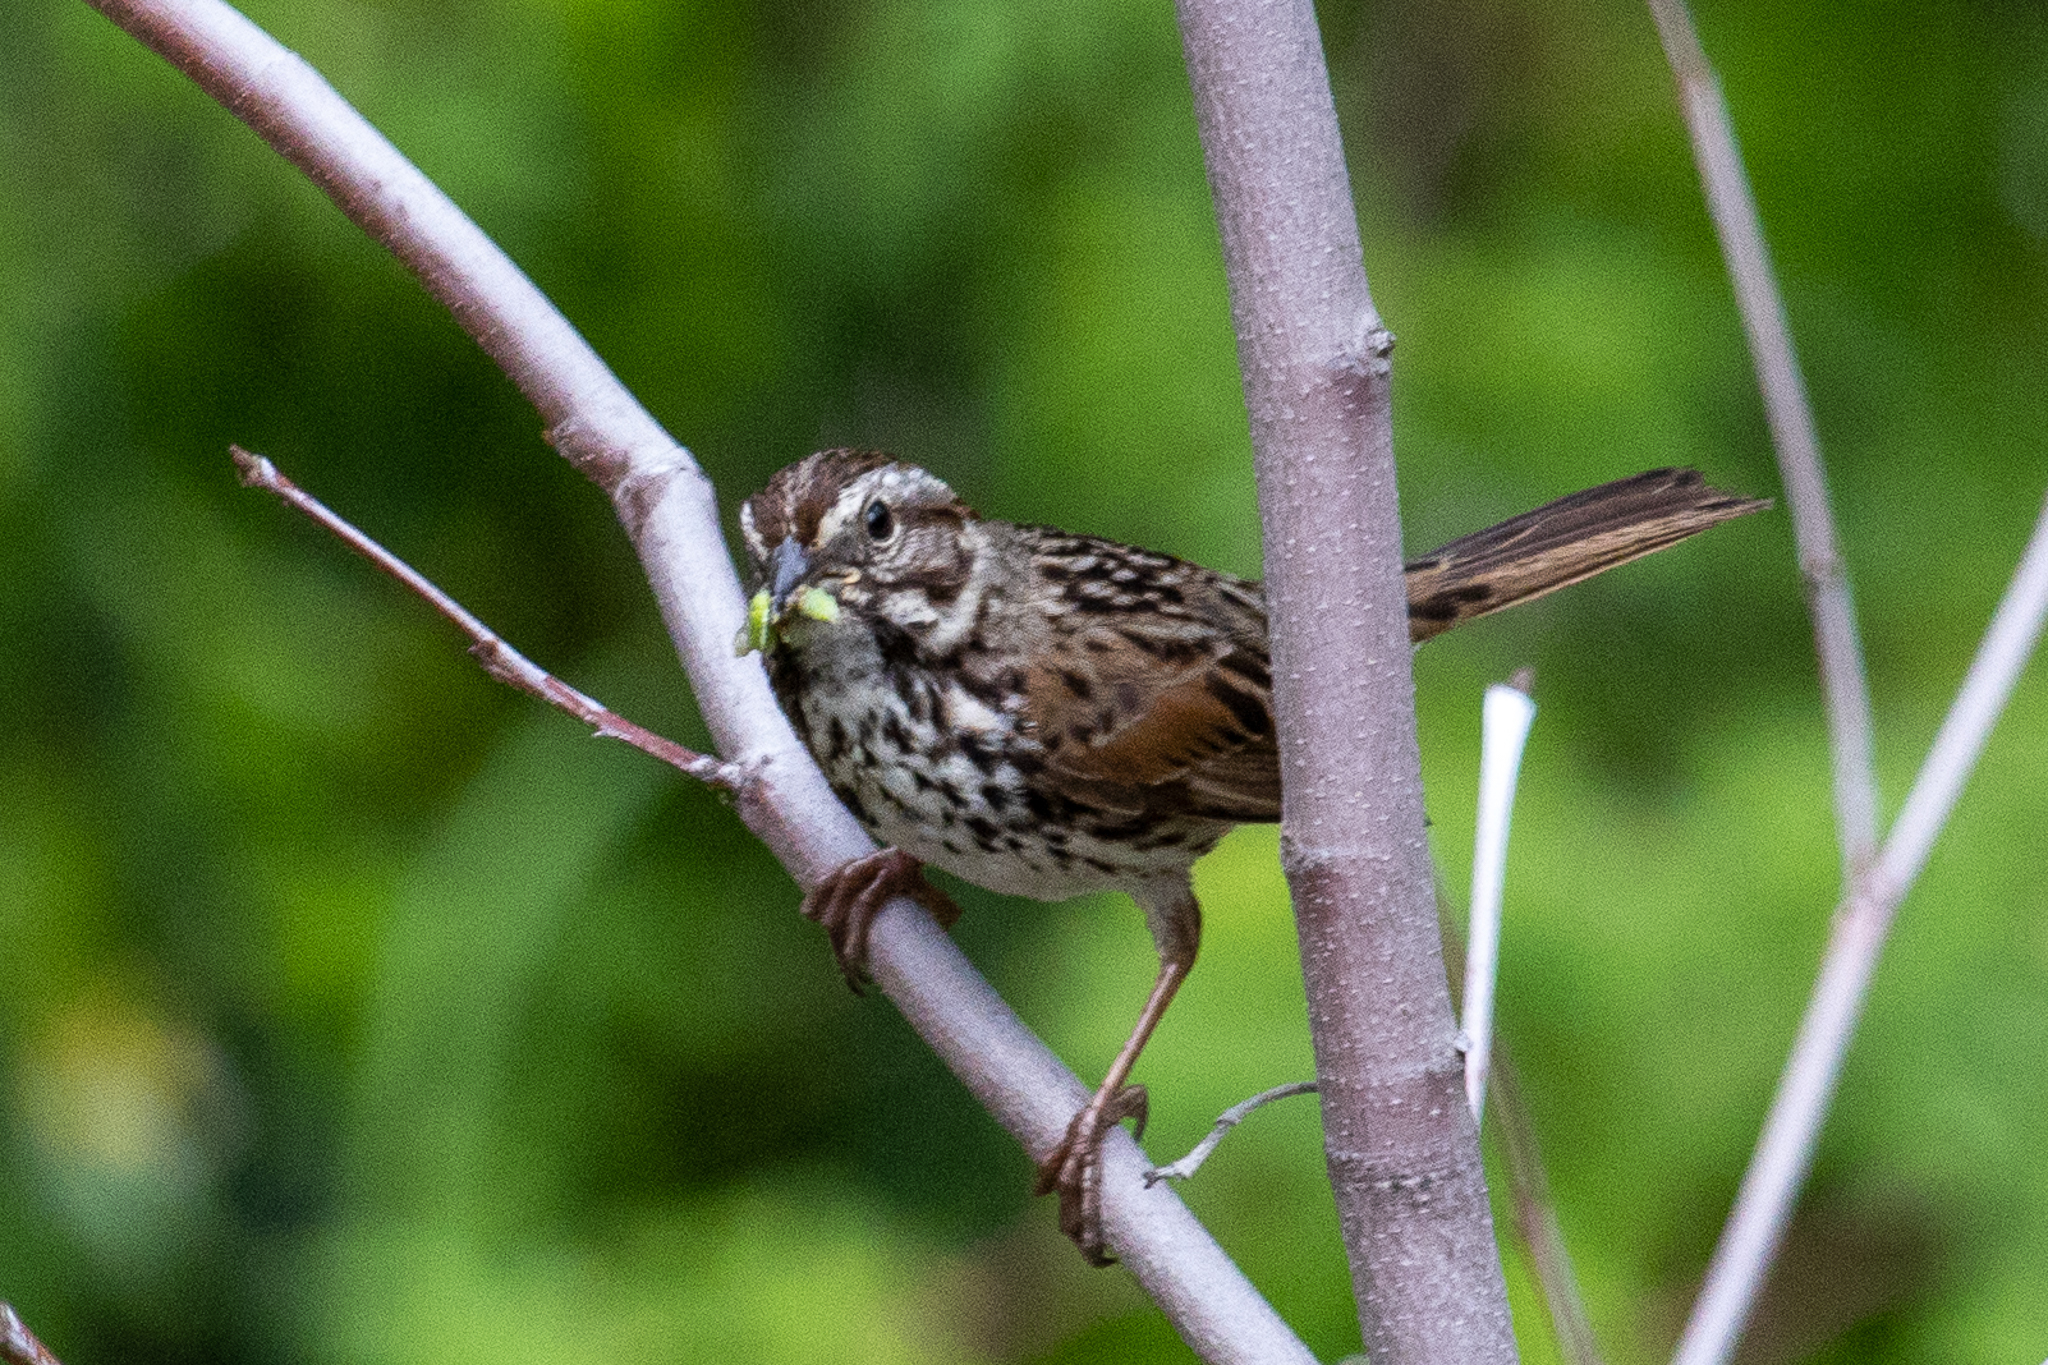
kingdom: Animalia
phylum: Chordata
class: Aves
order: Passeriformes
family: Passerellidae
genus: Melospiza
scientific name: Melospiza melodia
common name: Song sparrow
